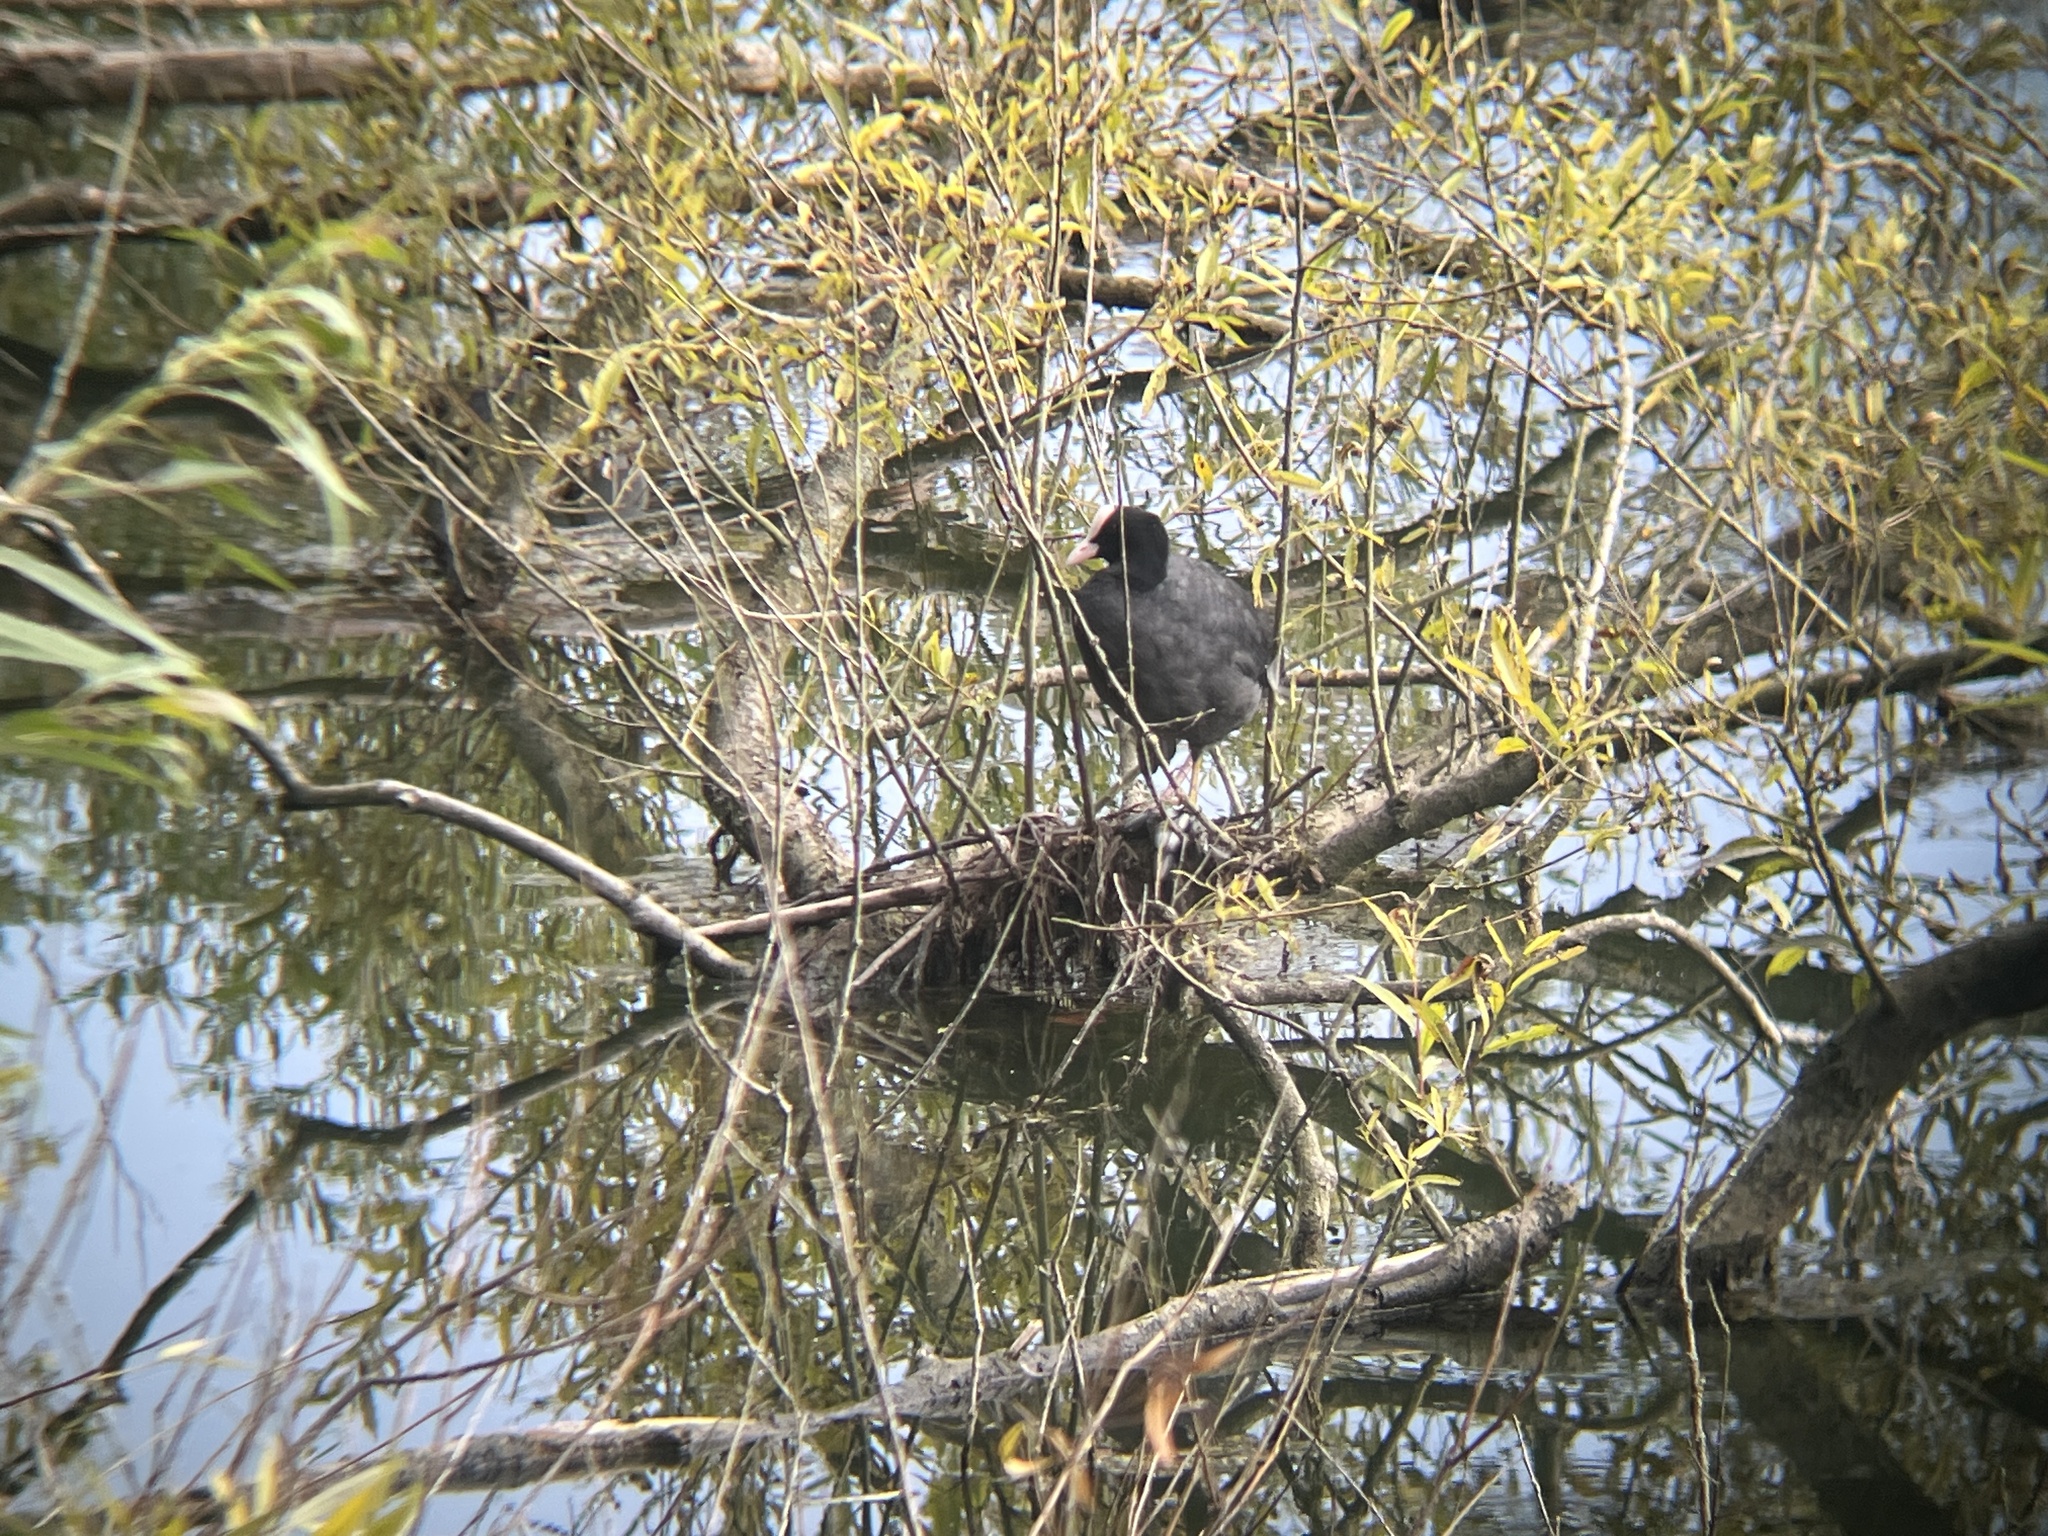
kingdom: Animalia
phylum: Chordata
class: Aves
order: Gruiformes
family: Rallidae
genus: Fulica
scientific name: Fulica atra
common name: Eurasian coot
